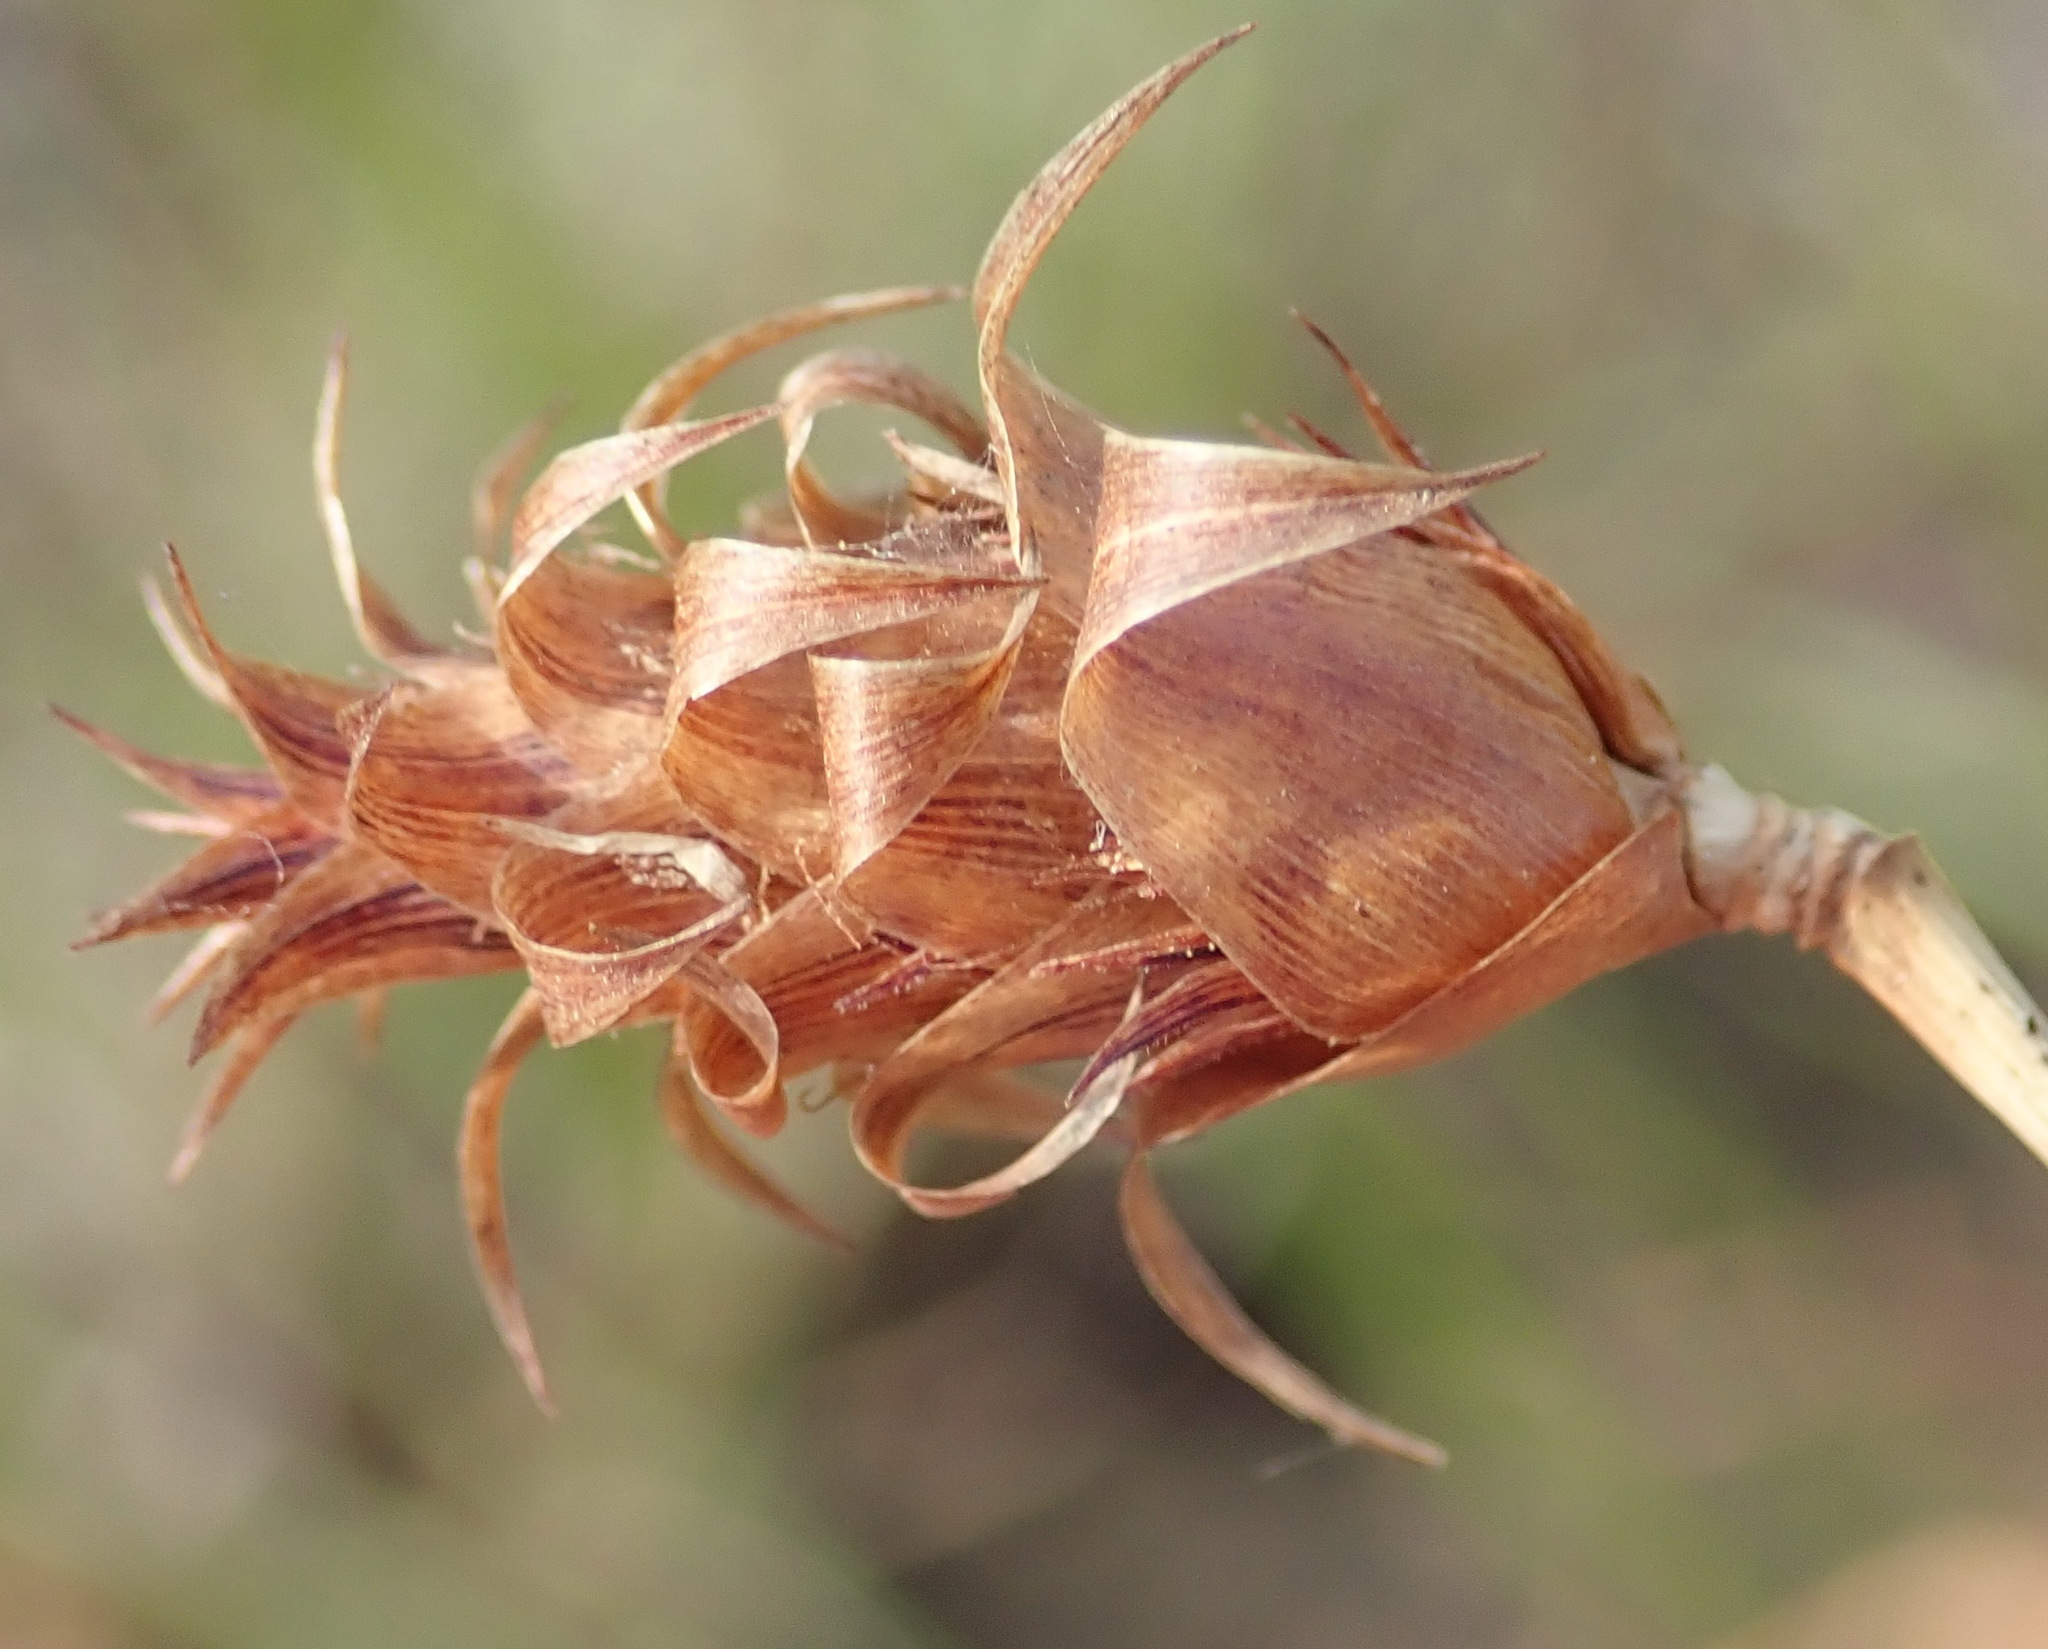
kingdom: Plantae
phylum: Tracheophyta
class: Liliopsida
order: Poales
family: Cyperaceae
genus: Ficinia
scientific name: Ficinia nigrescens
